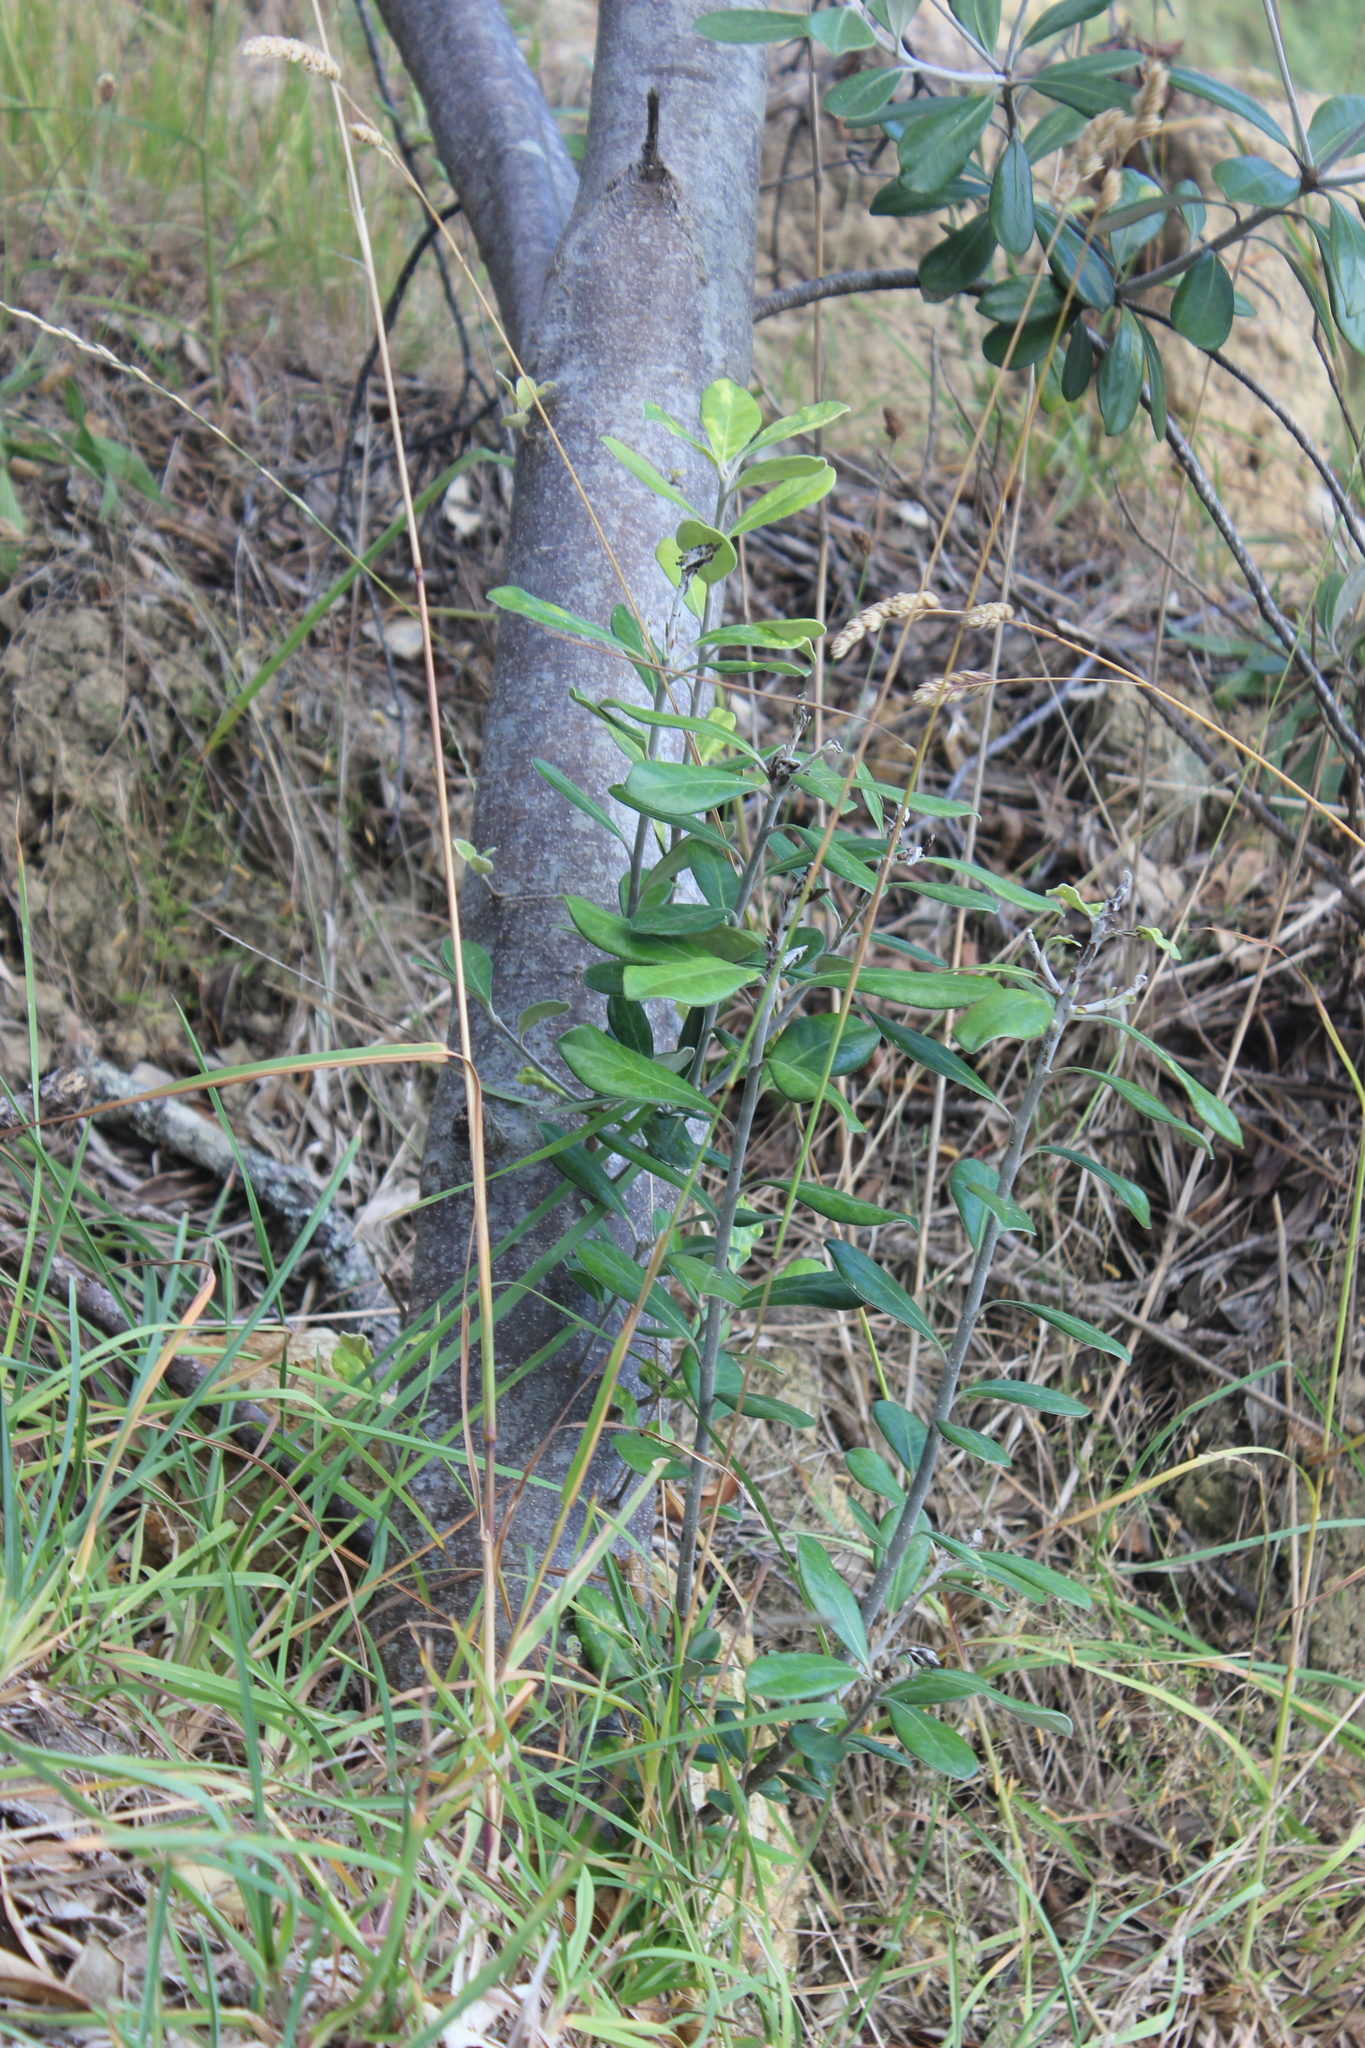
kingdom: Plantae
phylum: Tracheophyta
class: Magnoliopsida
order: Apiales
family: Pittosporaceae
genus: Pittosporum
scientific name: Pittosporum crassifolium
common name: Karo
